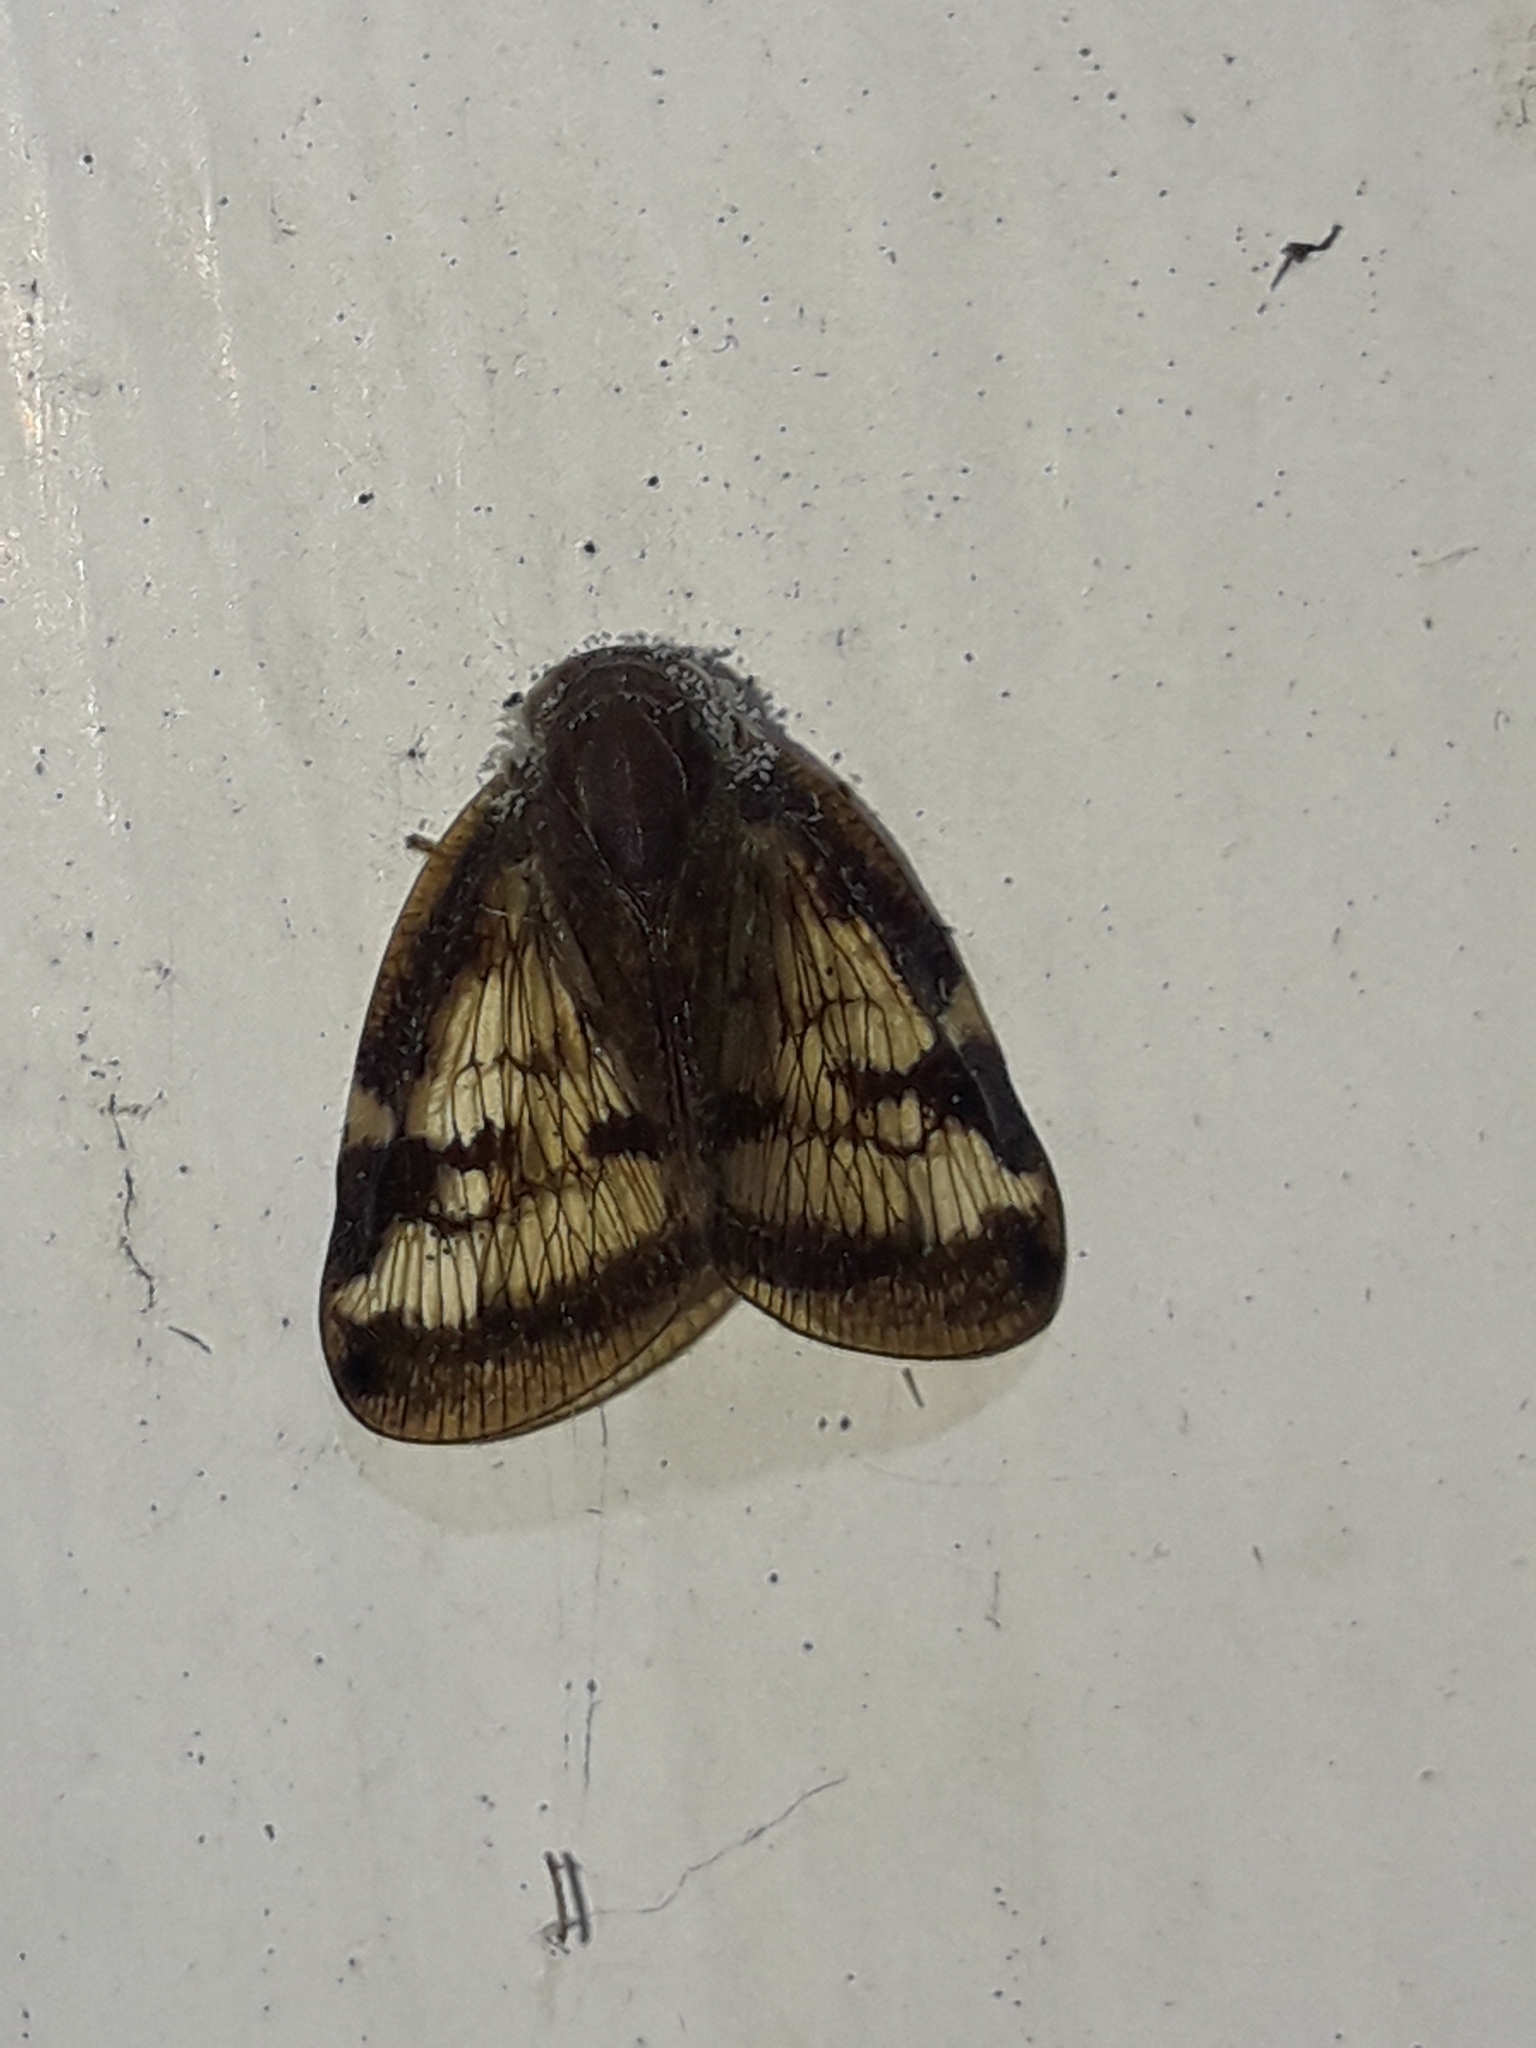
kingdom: Animalia
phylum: Arthropoda
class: Insecta
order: Hemiptera
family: Ricaniidae
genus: Scolypopa
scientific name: Scolypopa australis
